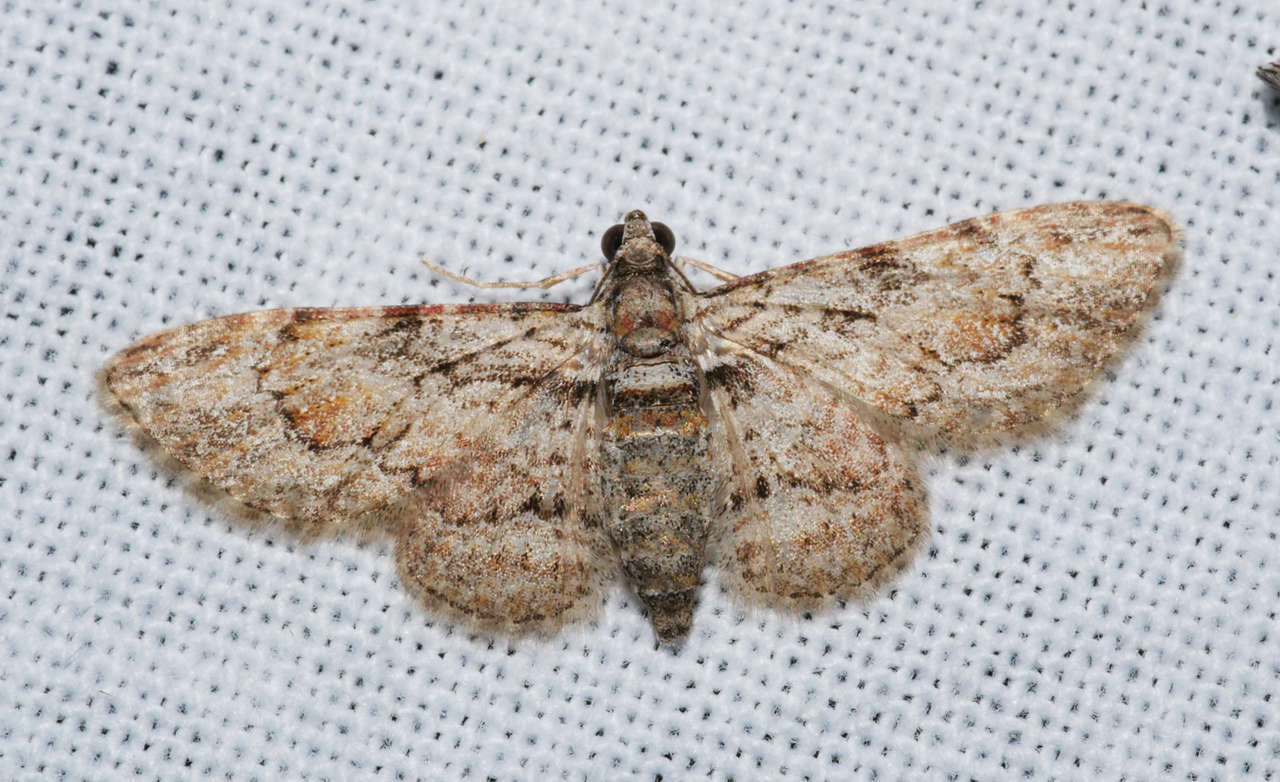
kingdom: Animalia
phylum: Arthropoda
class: Insecta
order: Lepidoptera
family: Geometridae
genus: Chloroclystis
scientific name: Chloroclystis insigillata
